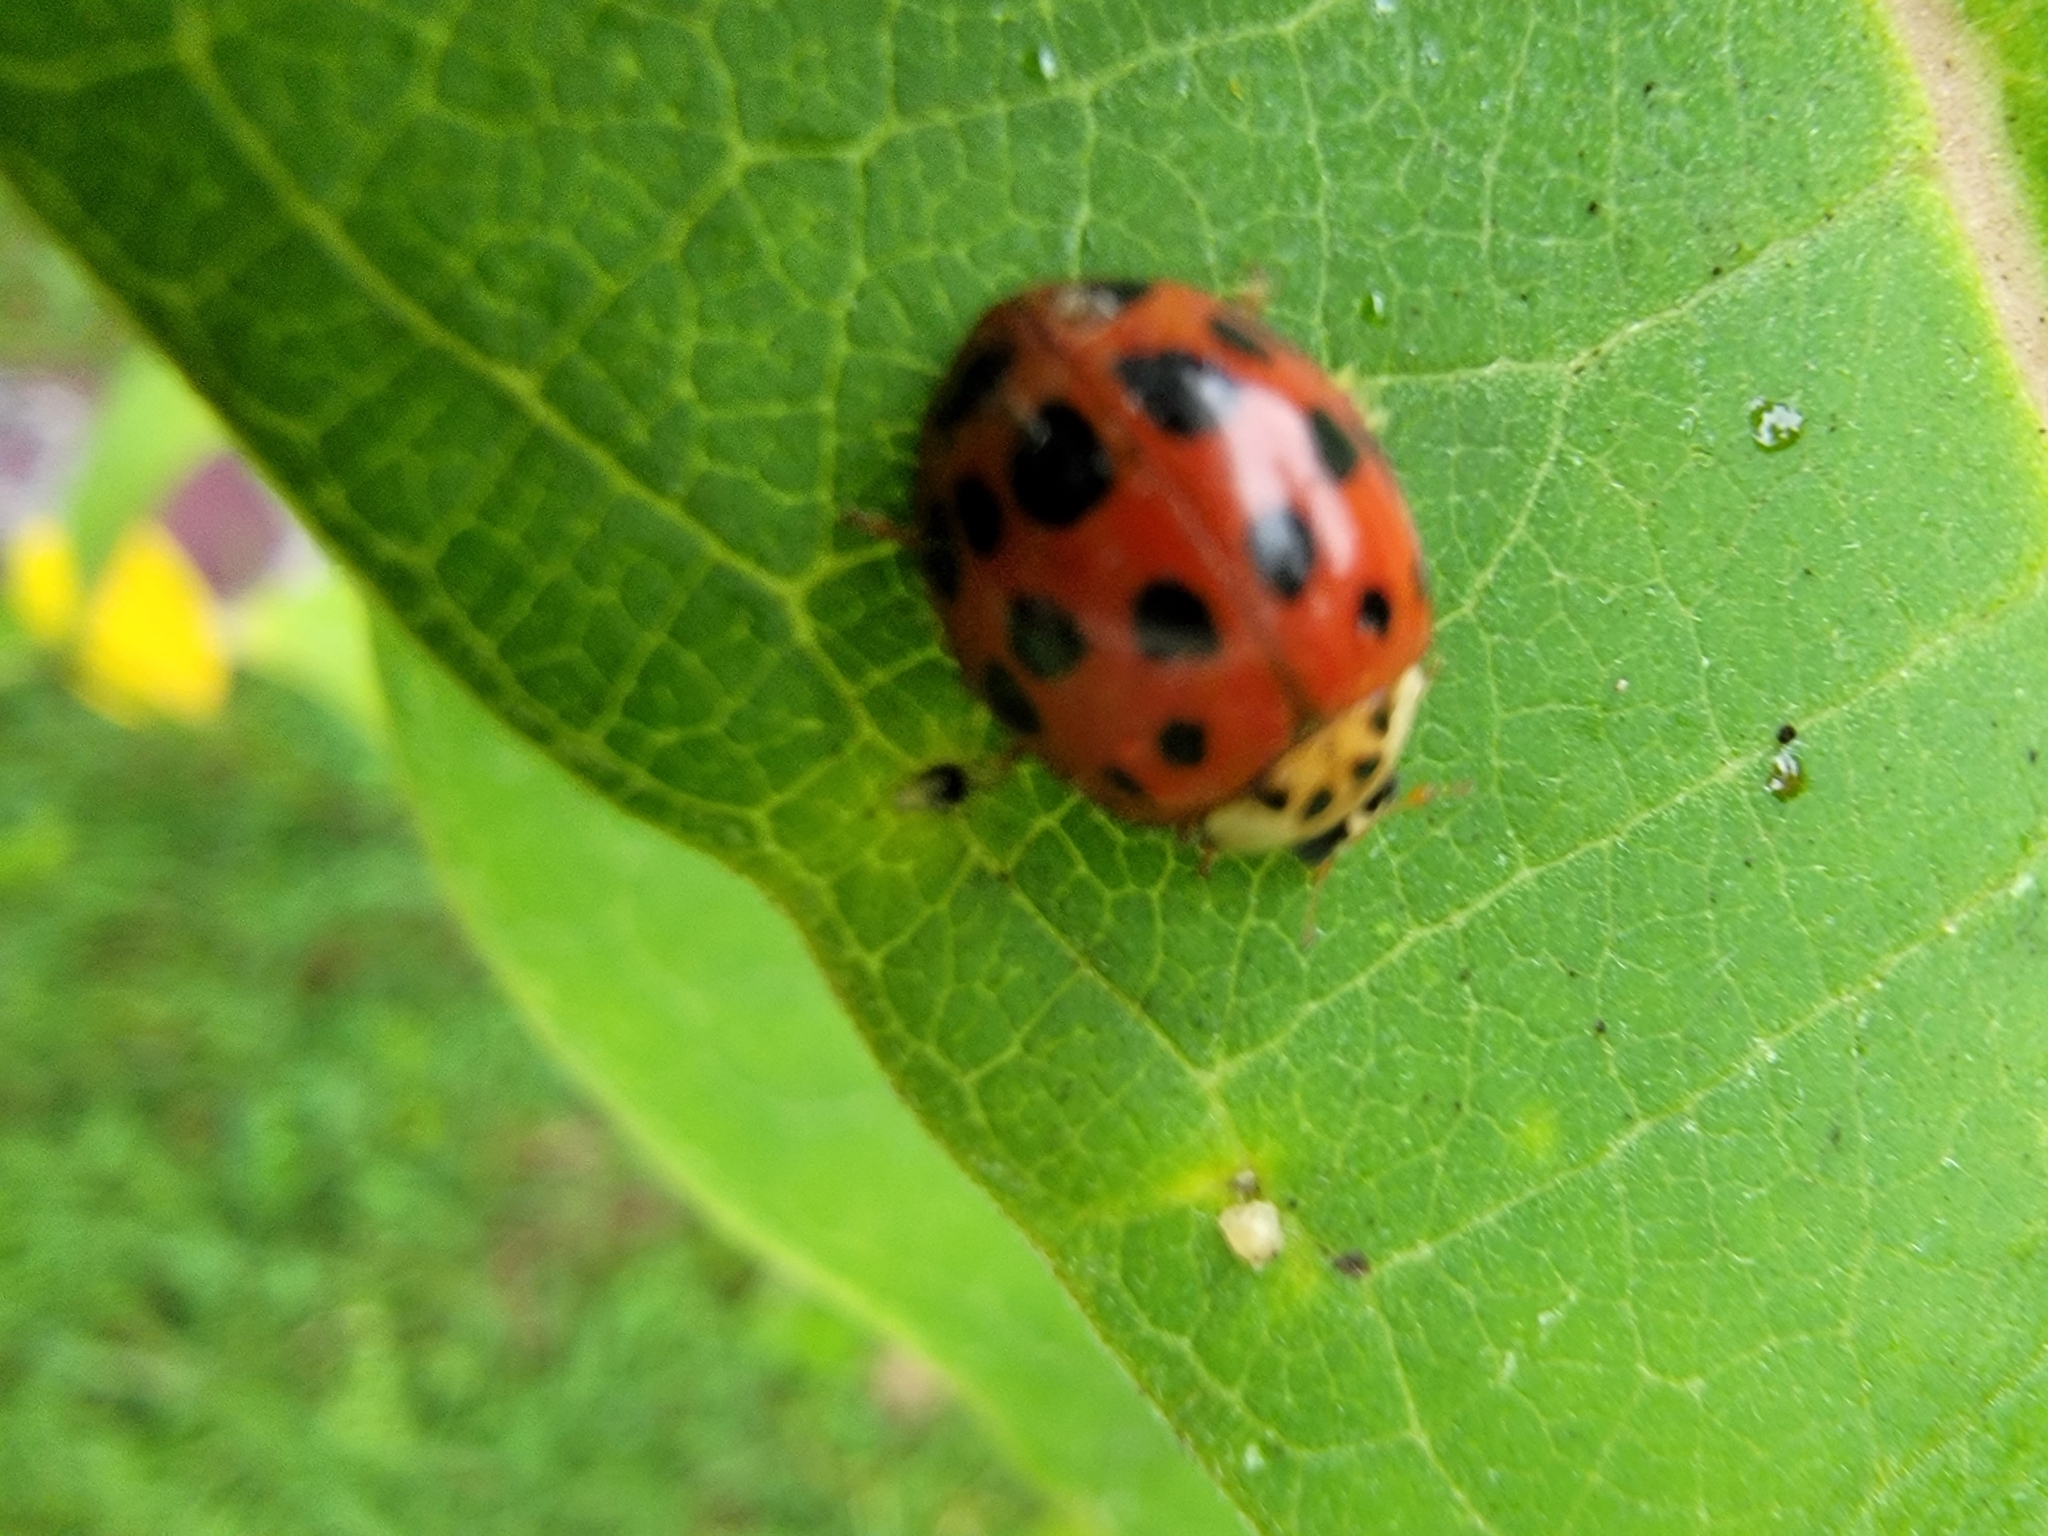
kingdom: Animalia
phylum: Arthropoda
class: Insecta
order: Coleoptera
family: Coccinellidae
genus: Harmonia
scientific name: Harmonia axyridis
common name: Harlequin ladybird
